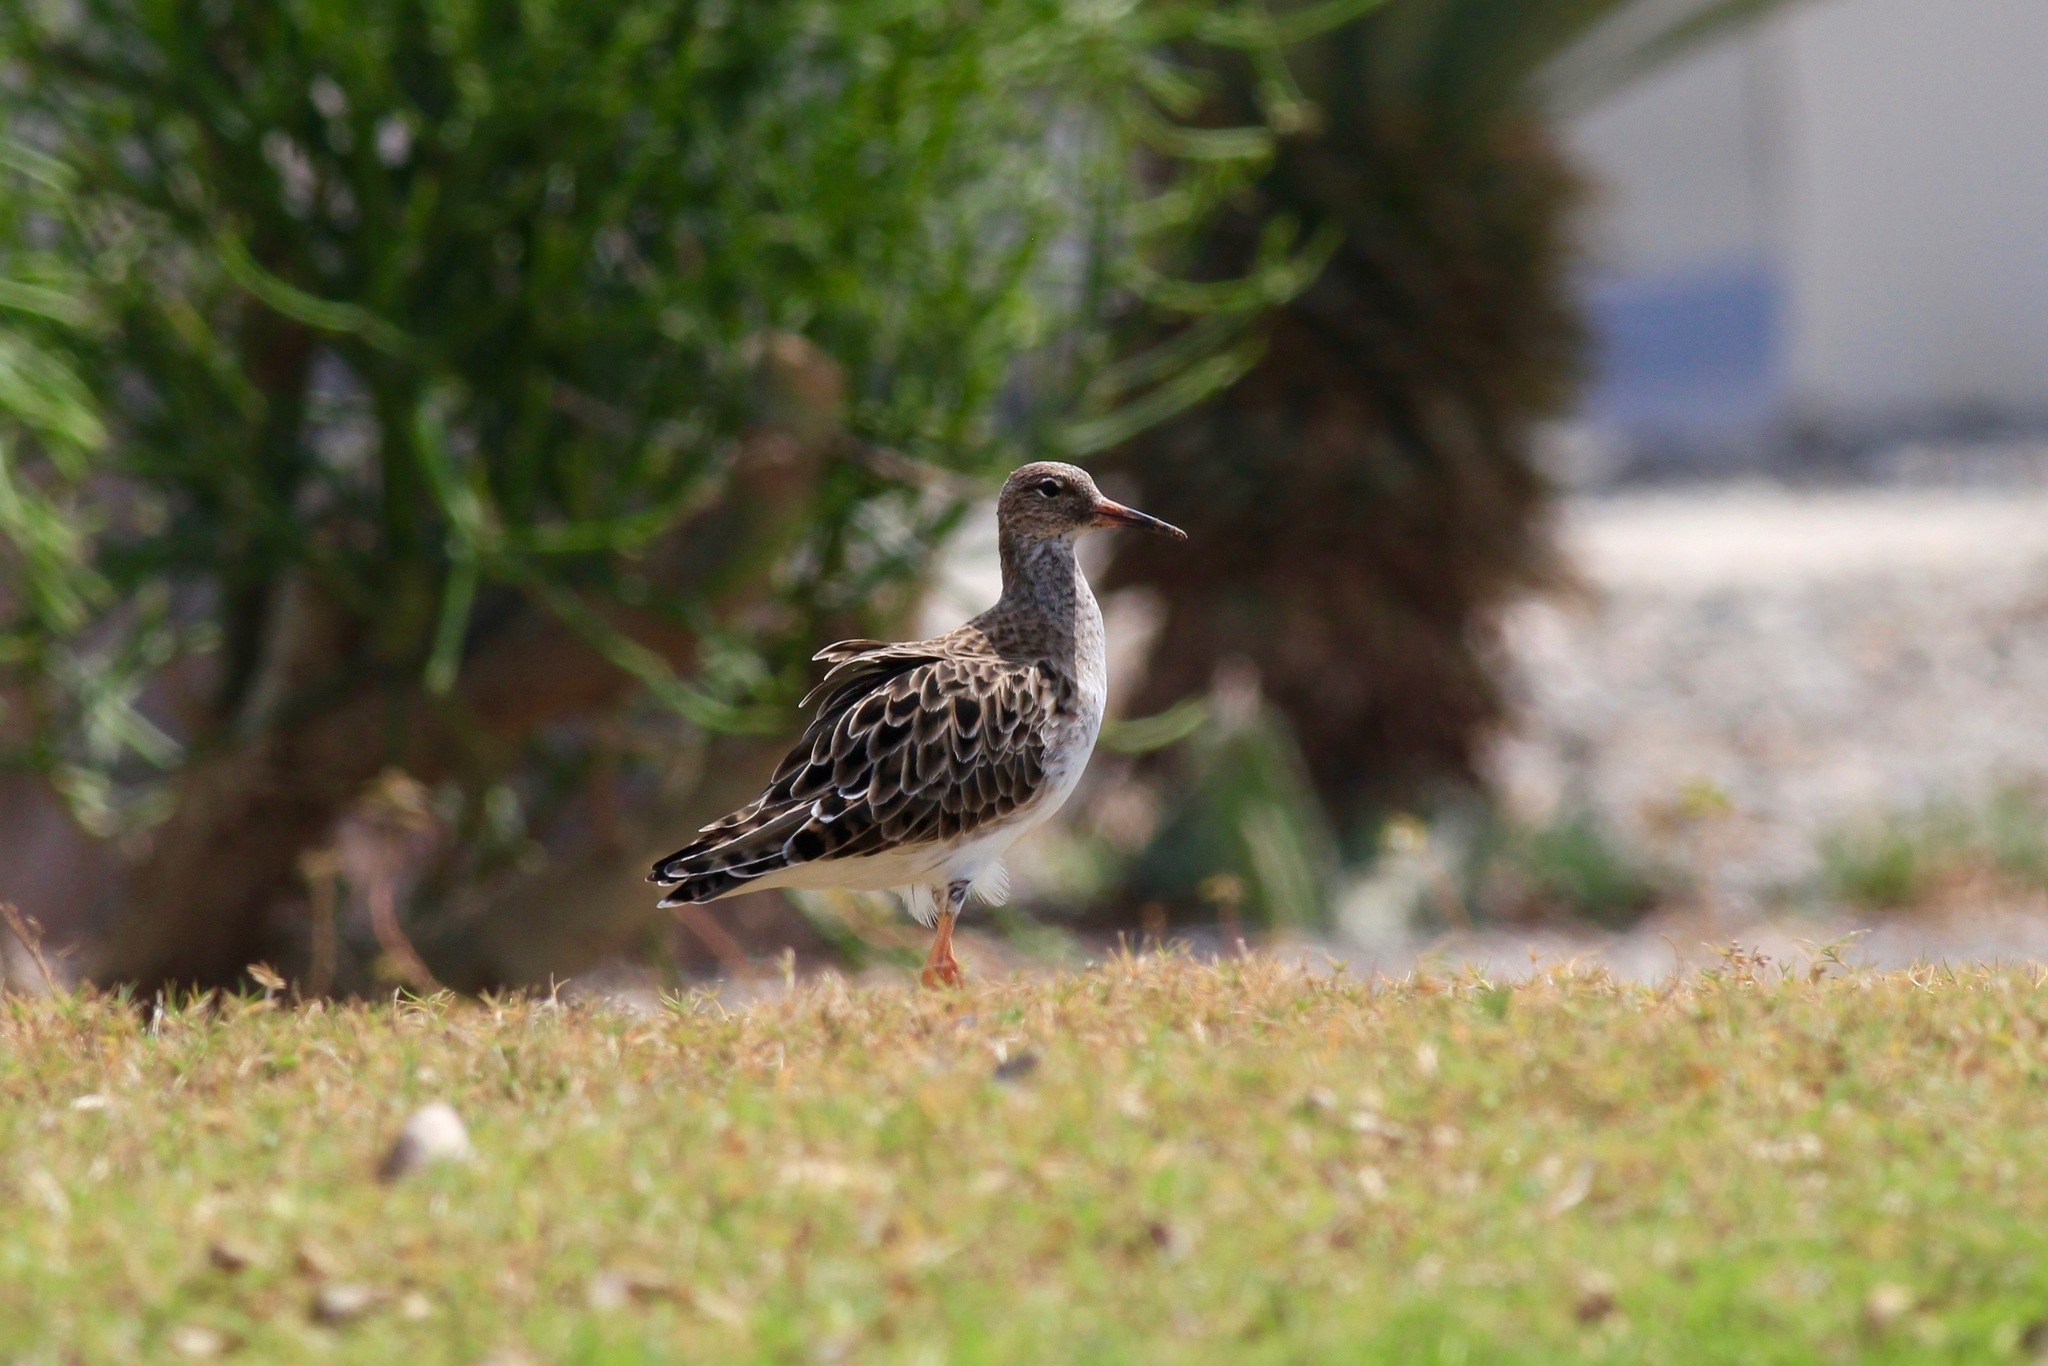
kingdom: Animalia
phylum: Chordata
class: Aves
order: Charadriiformes
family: Scolopacidae
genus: Calidris
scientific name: Calidris pugnax
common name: Ruff
